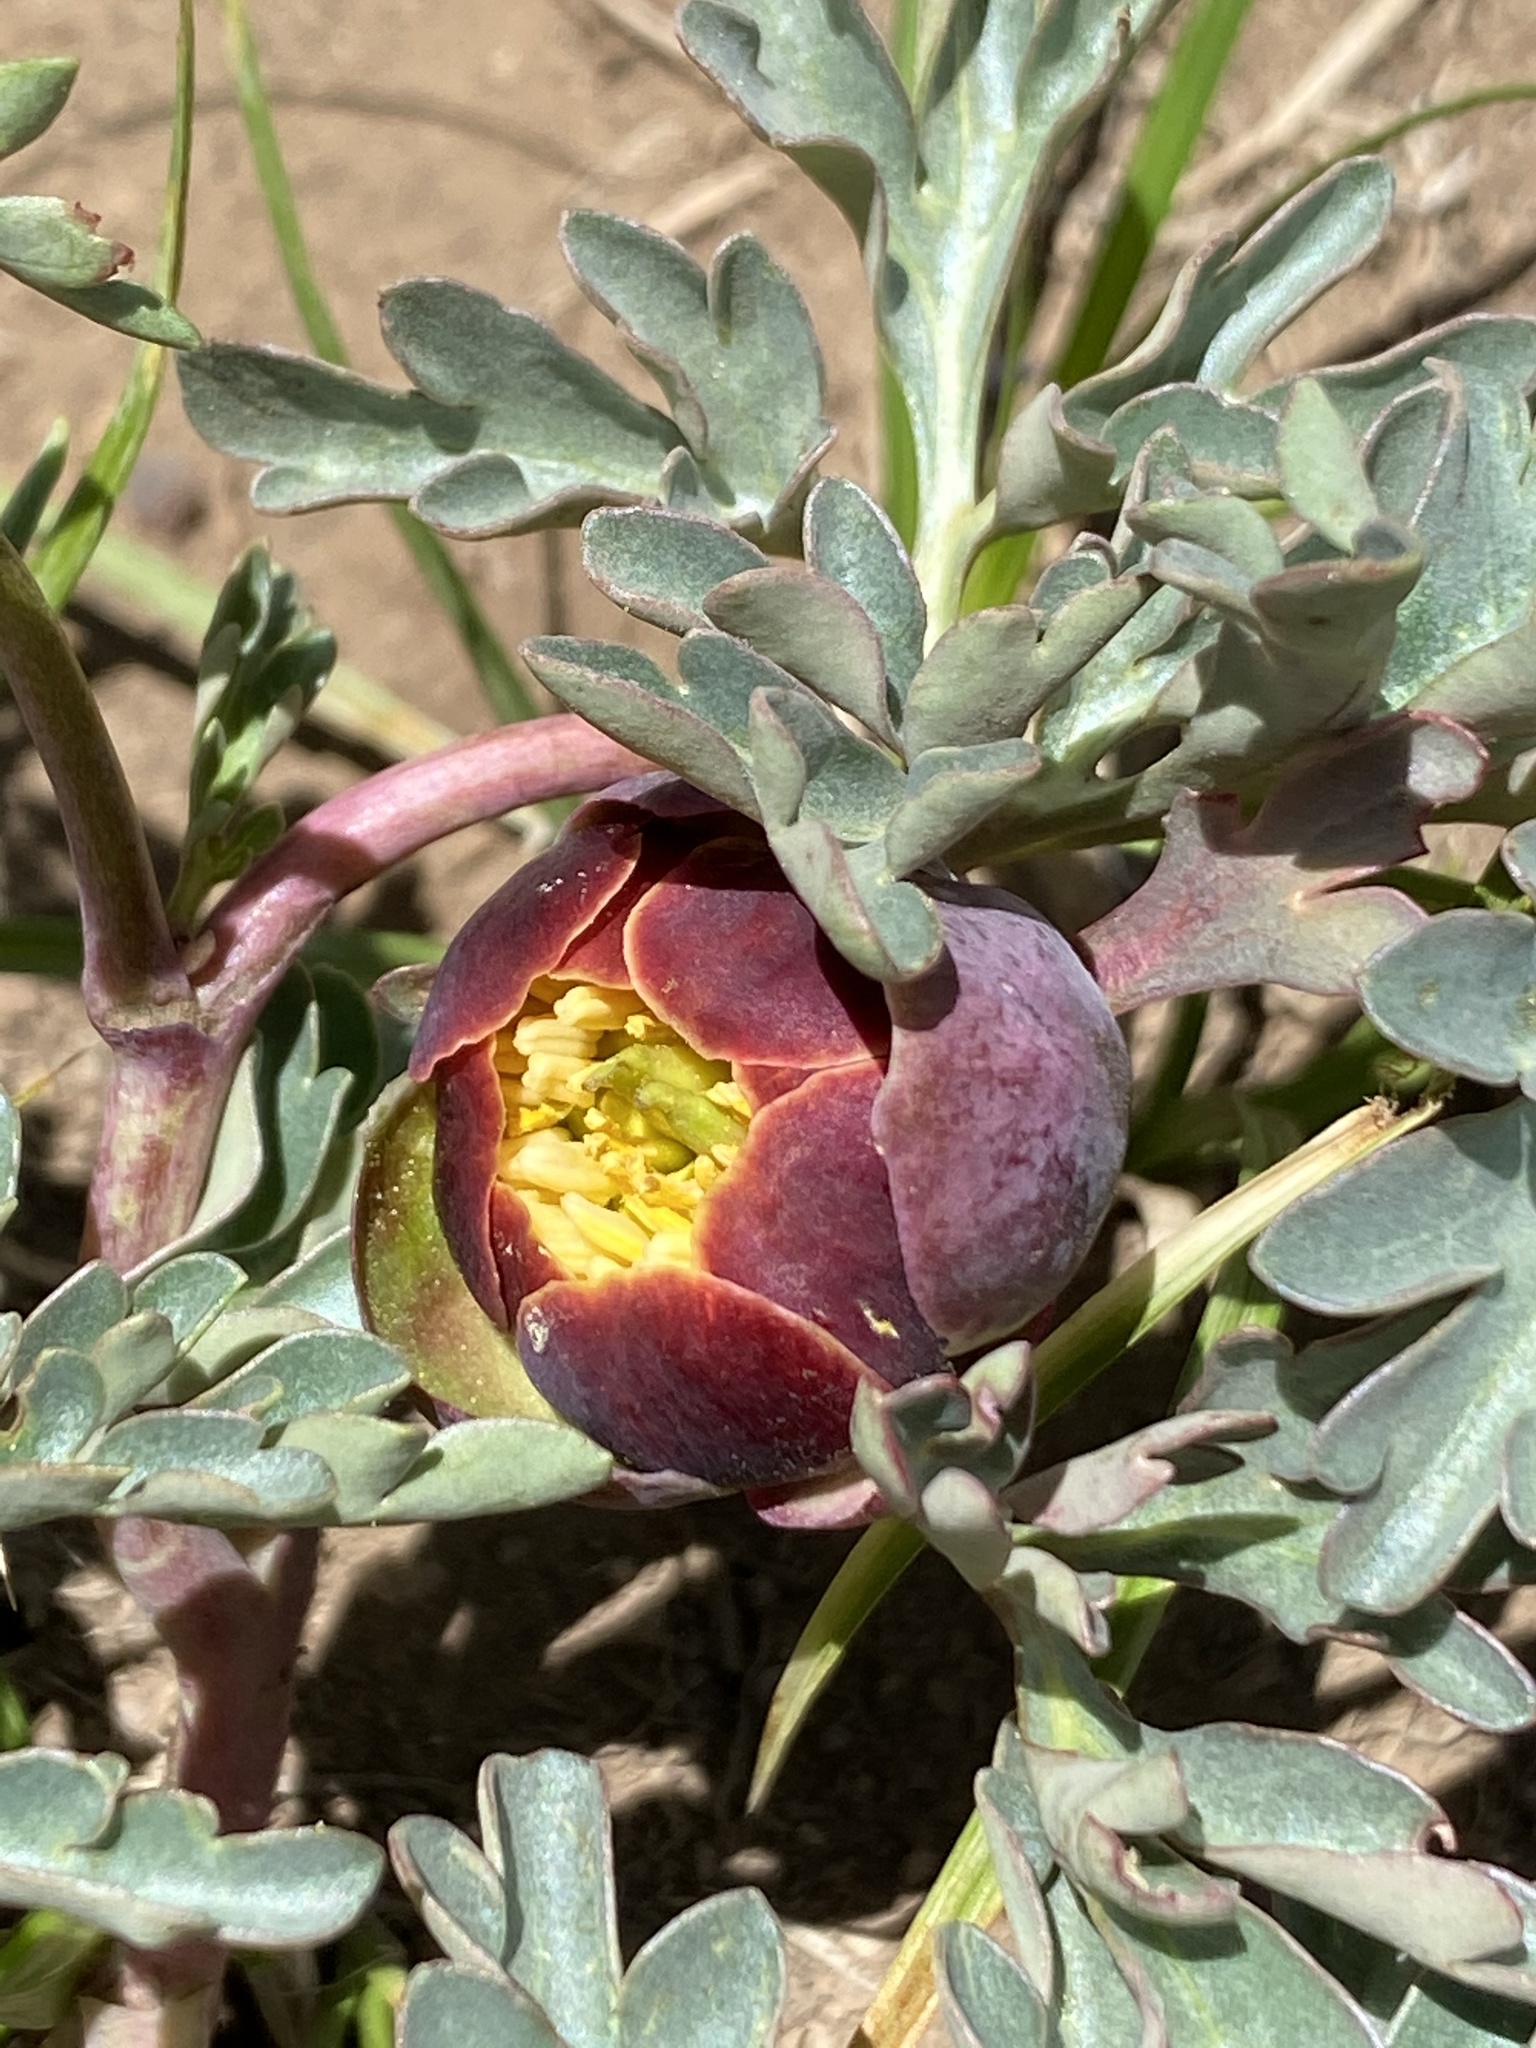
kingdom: Plantae
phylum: Tracheophyta
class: Magnoliopsida
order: Saxifragales
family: Paeoniaceae
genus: Paeonia
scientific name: Paeonia brownii
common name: Brown's peony
